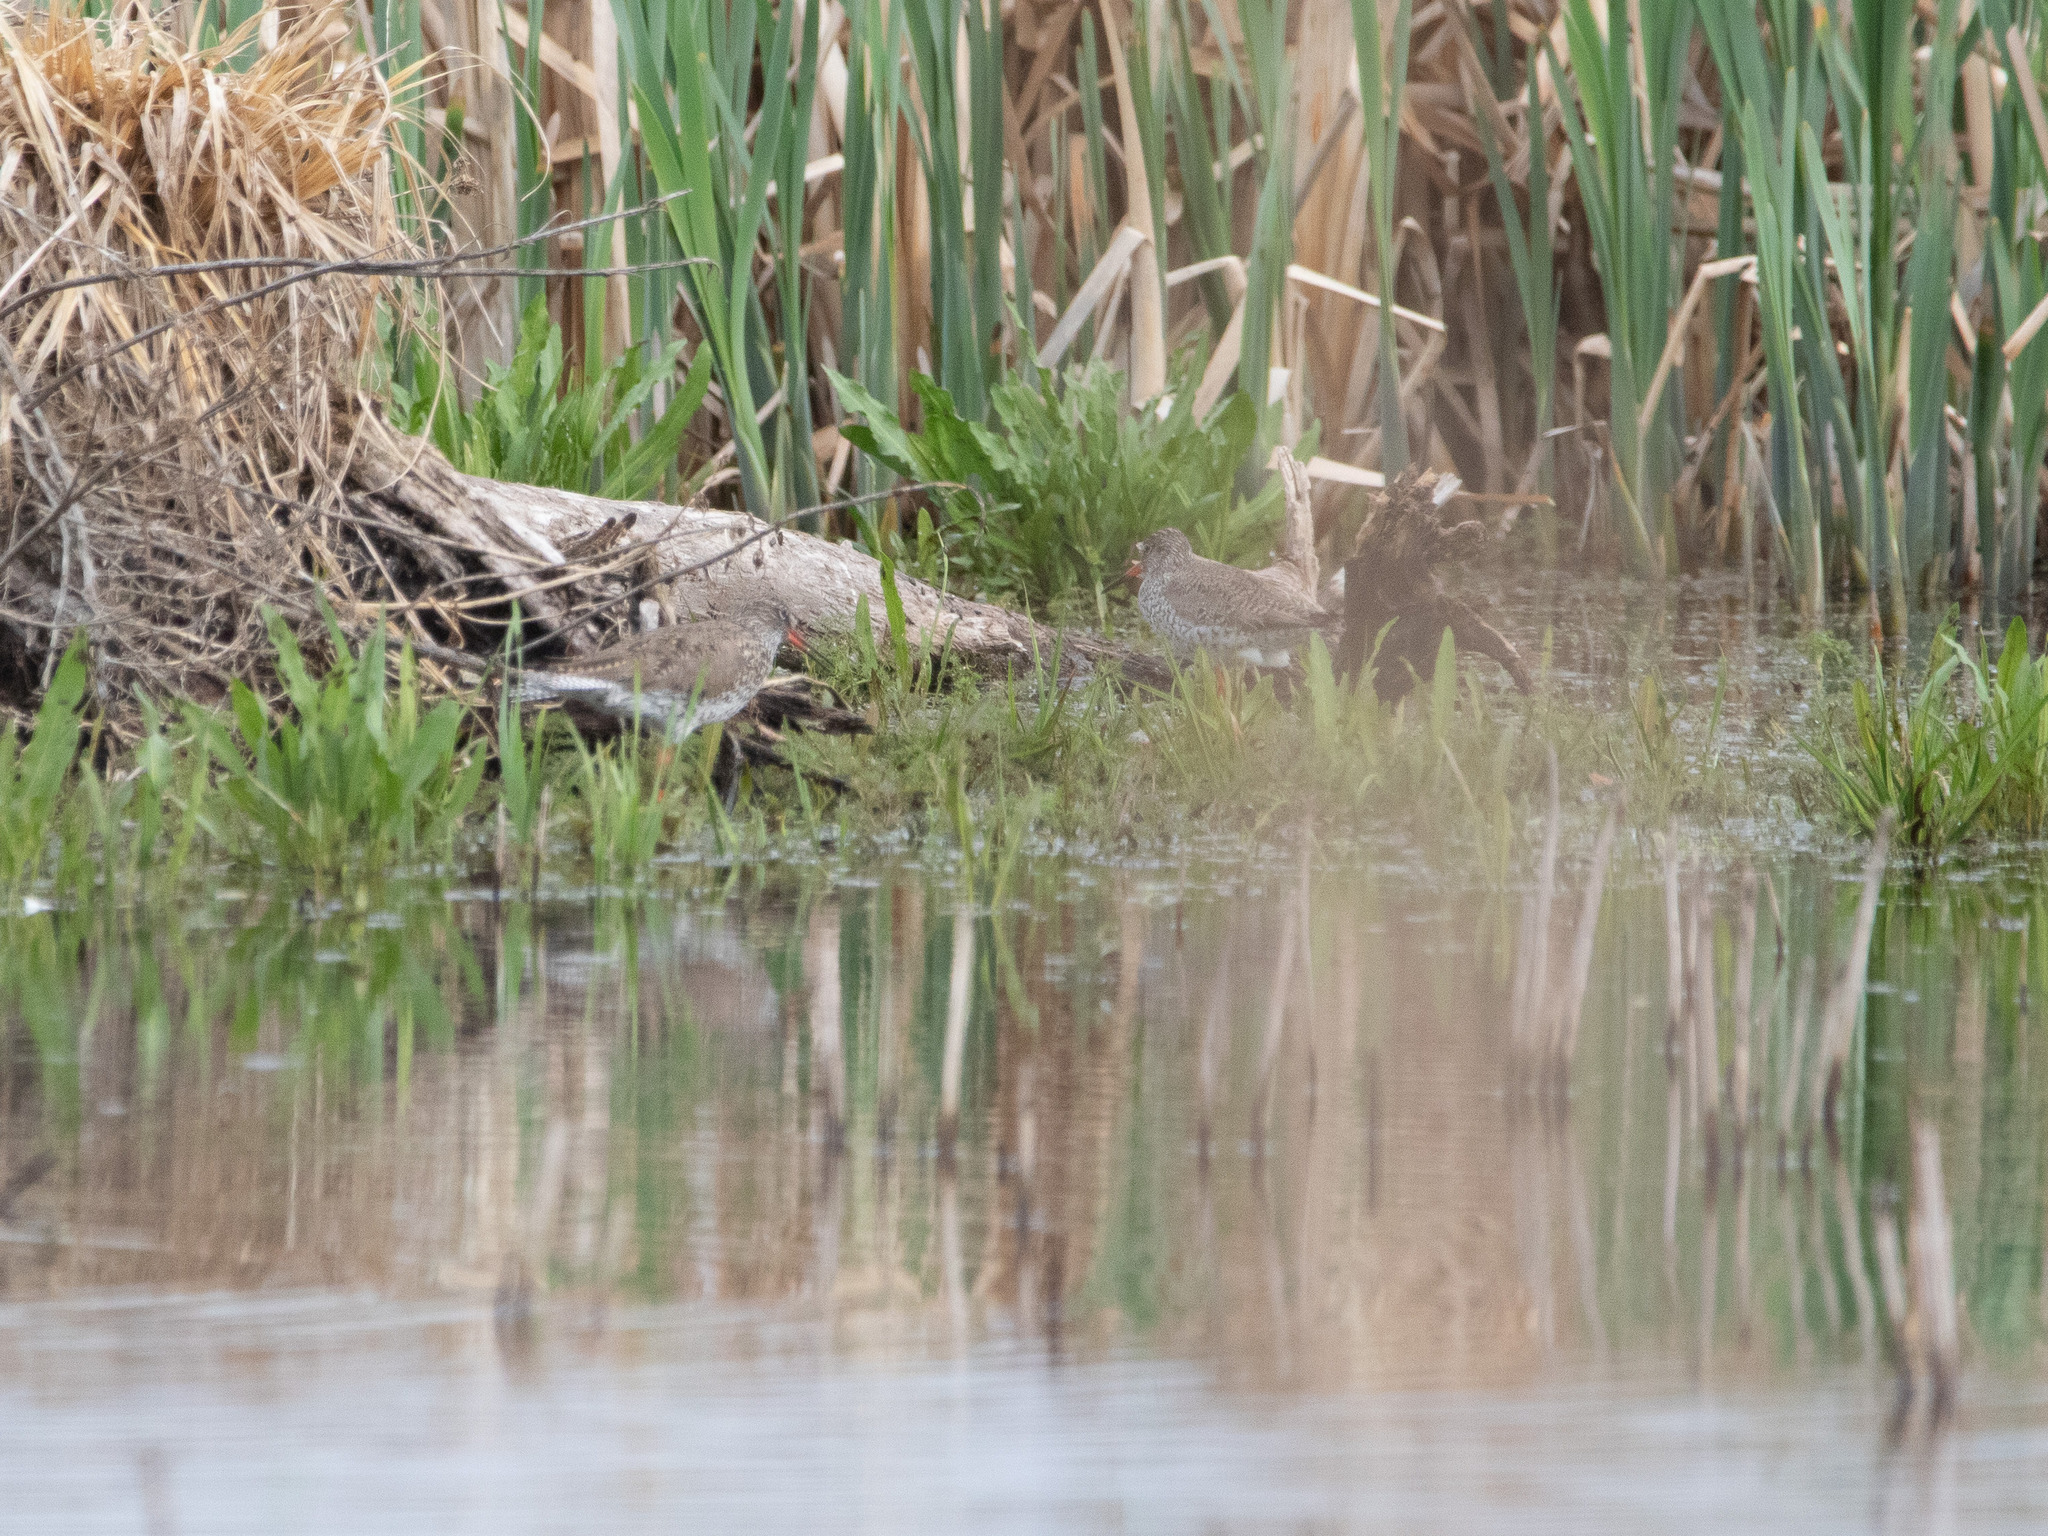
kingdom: Animalia
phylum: Chordata
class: Aves
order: Charadriiformes
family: Scolopacidae
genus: Tringa
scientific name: Tringa totanus
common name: Common redshank
